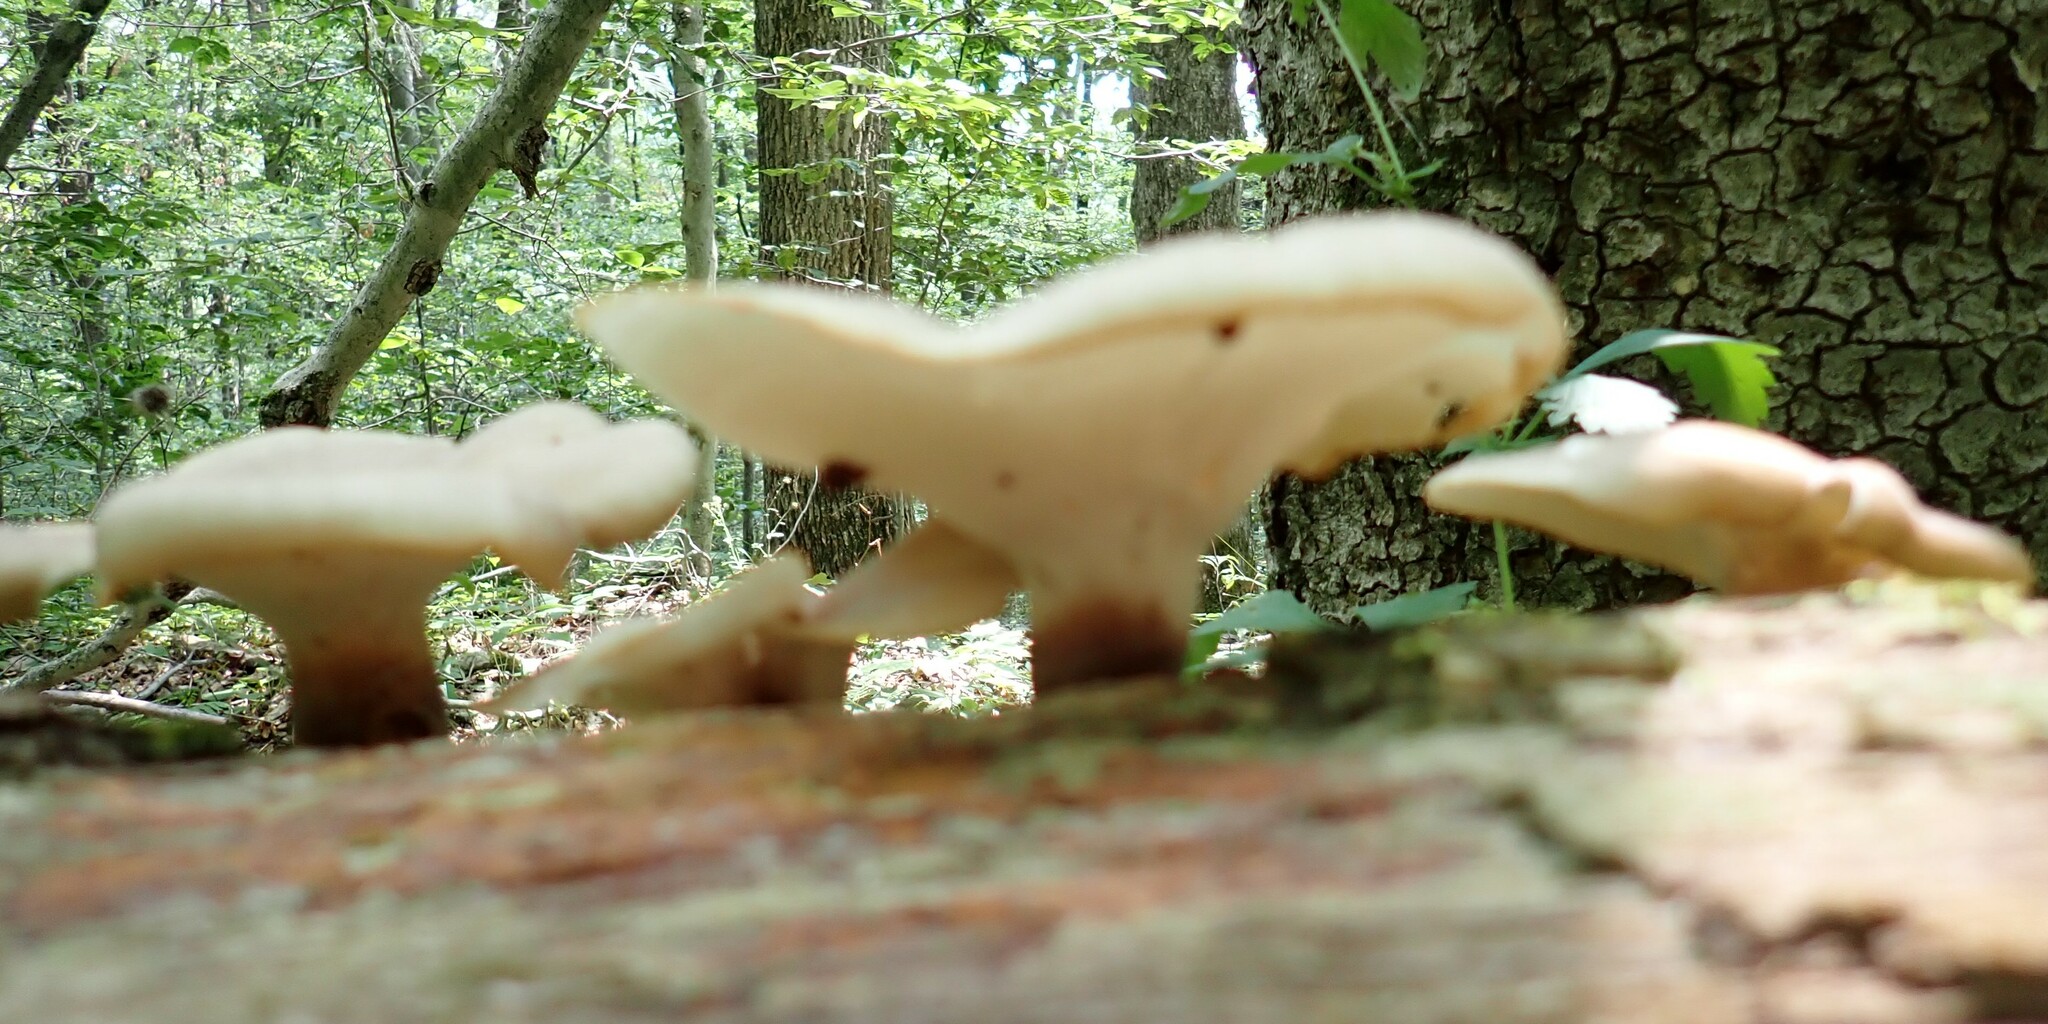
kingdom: Fungi
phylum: Basidiomycota
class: Agaricomycetes
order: Polyporales
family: Polyporaceae
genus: Picipes
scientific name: Picipes badius
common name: Bay polypore
